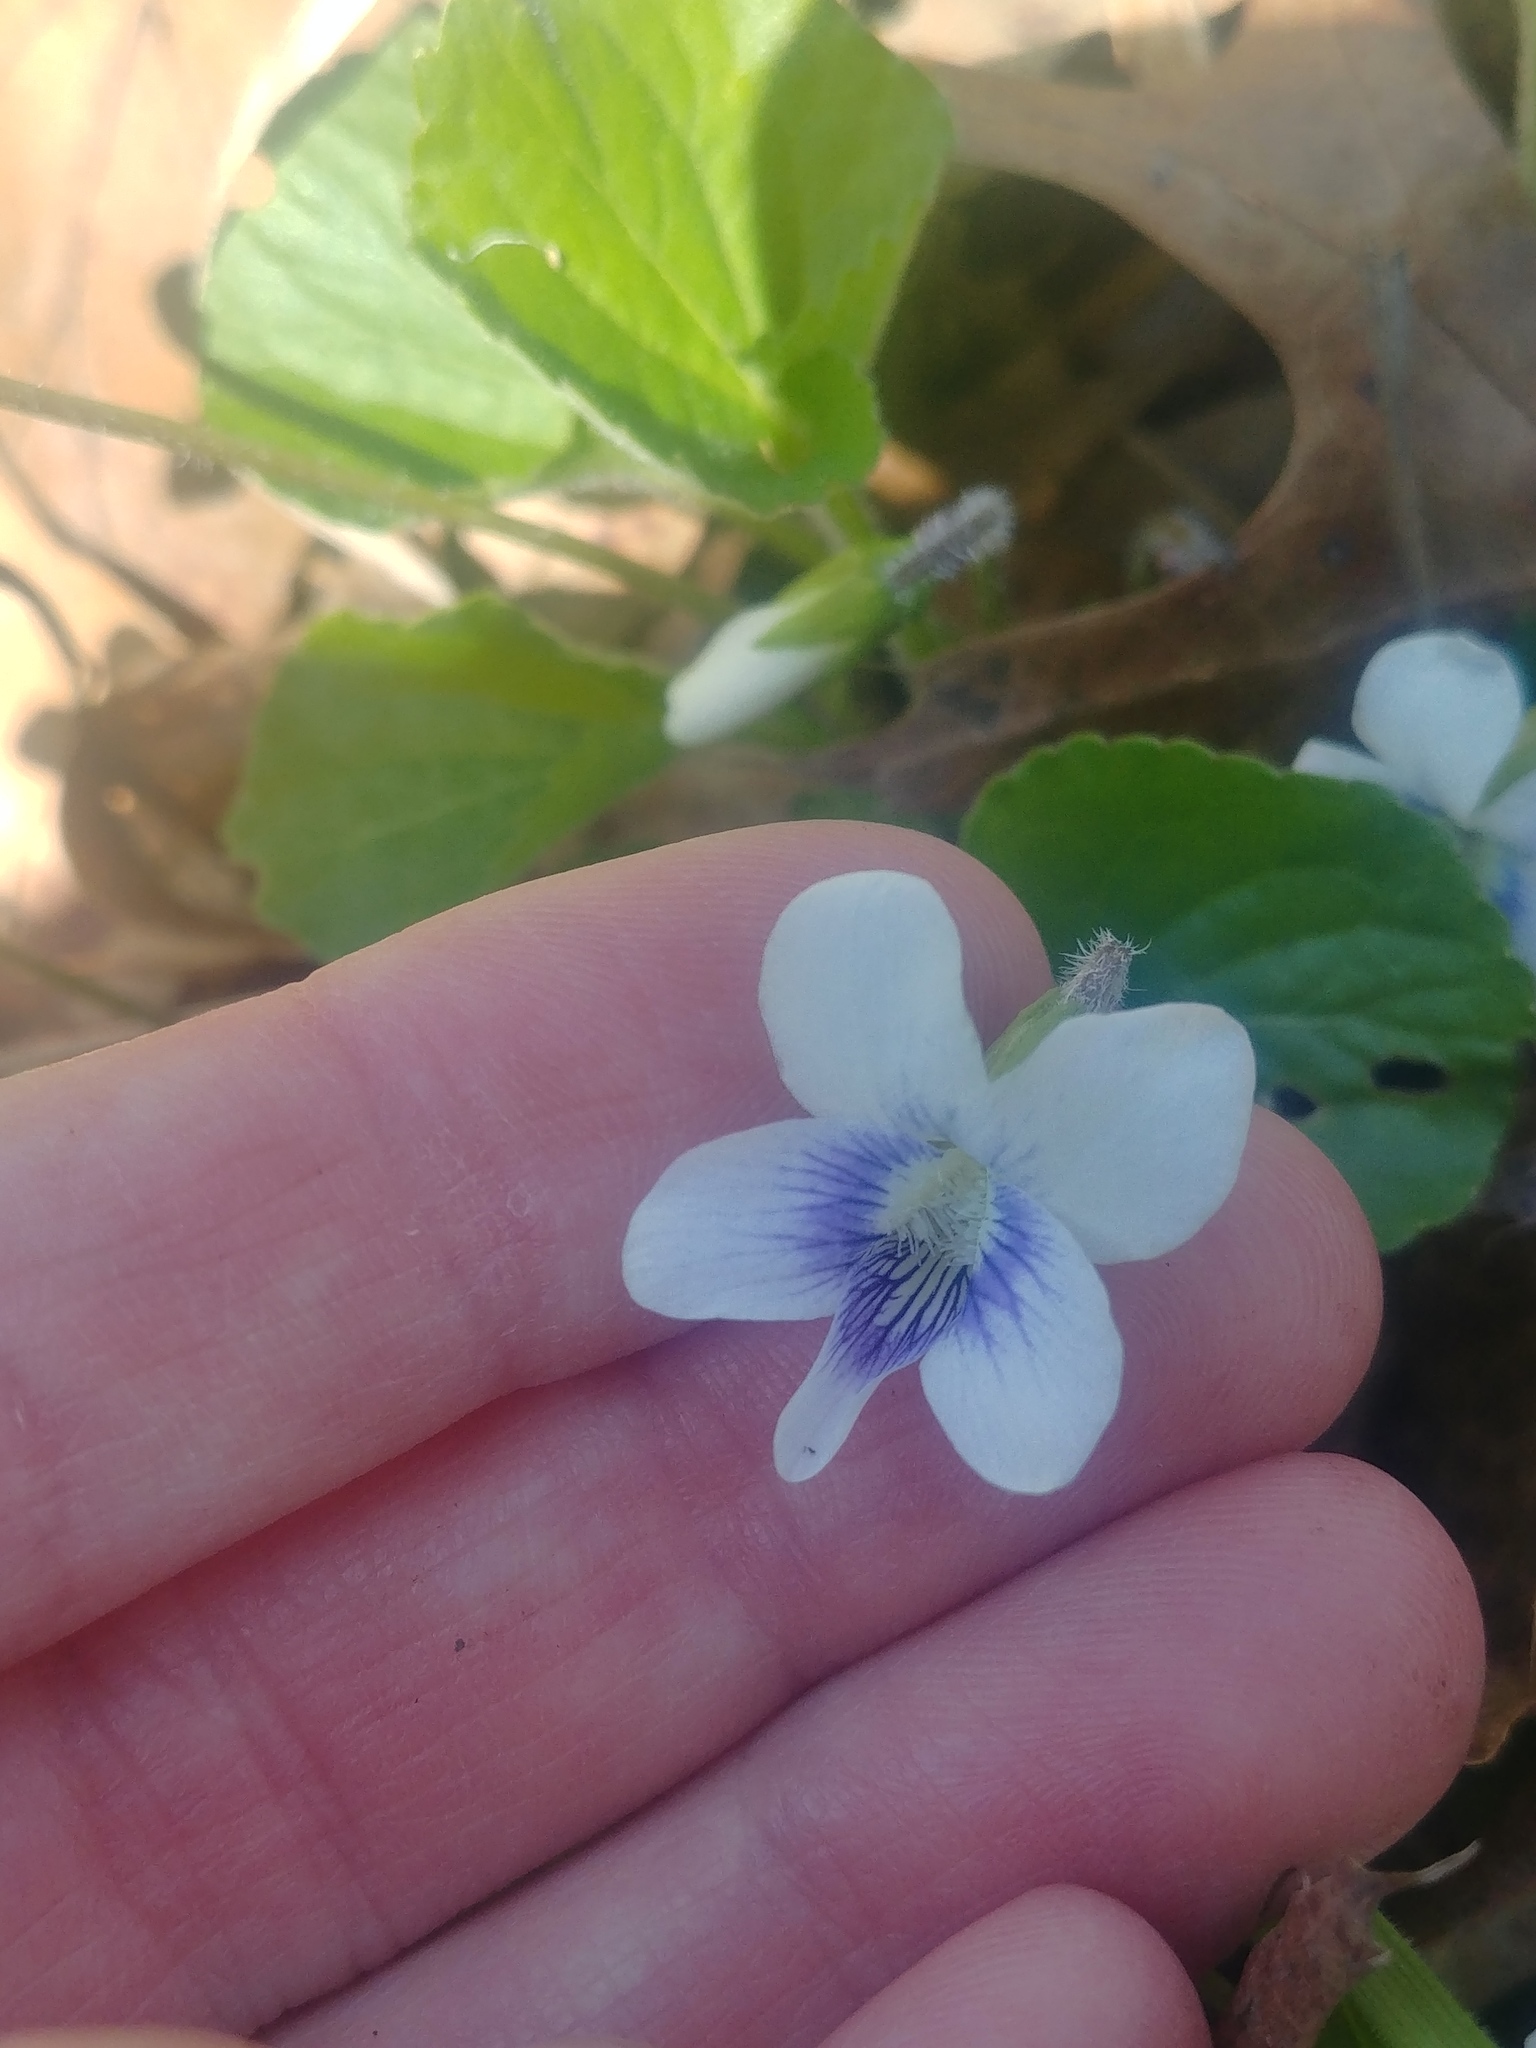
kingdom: Plantae
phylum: Tracheophyta
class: Magnoliopsida
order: Malpighiales
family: Violaceae
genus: Viola
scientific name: Viola sororia
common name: Dooryard violet
